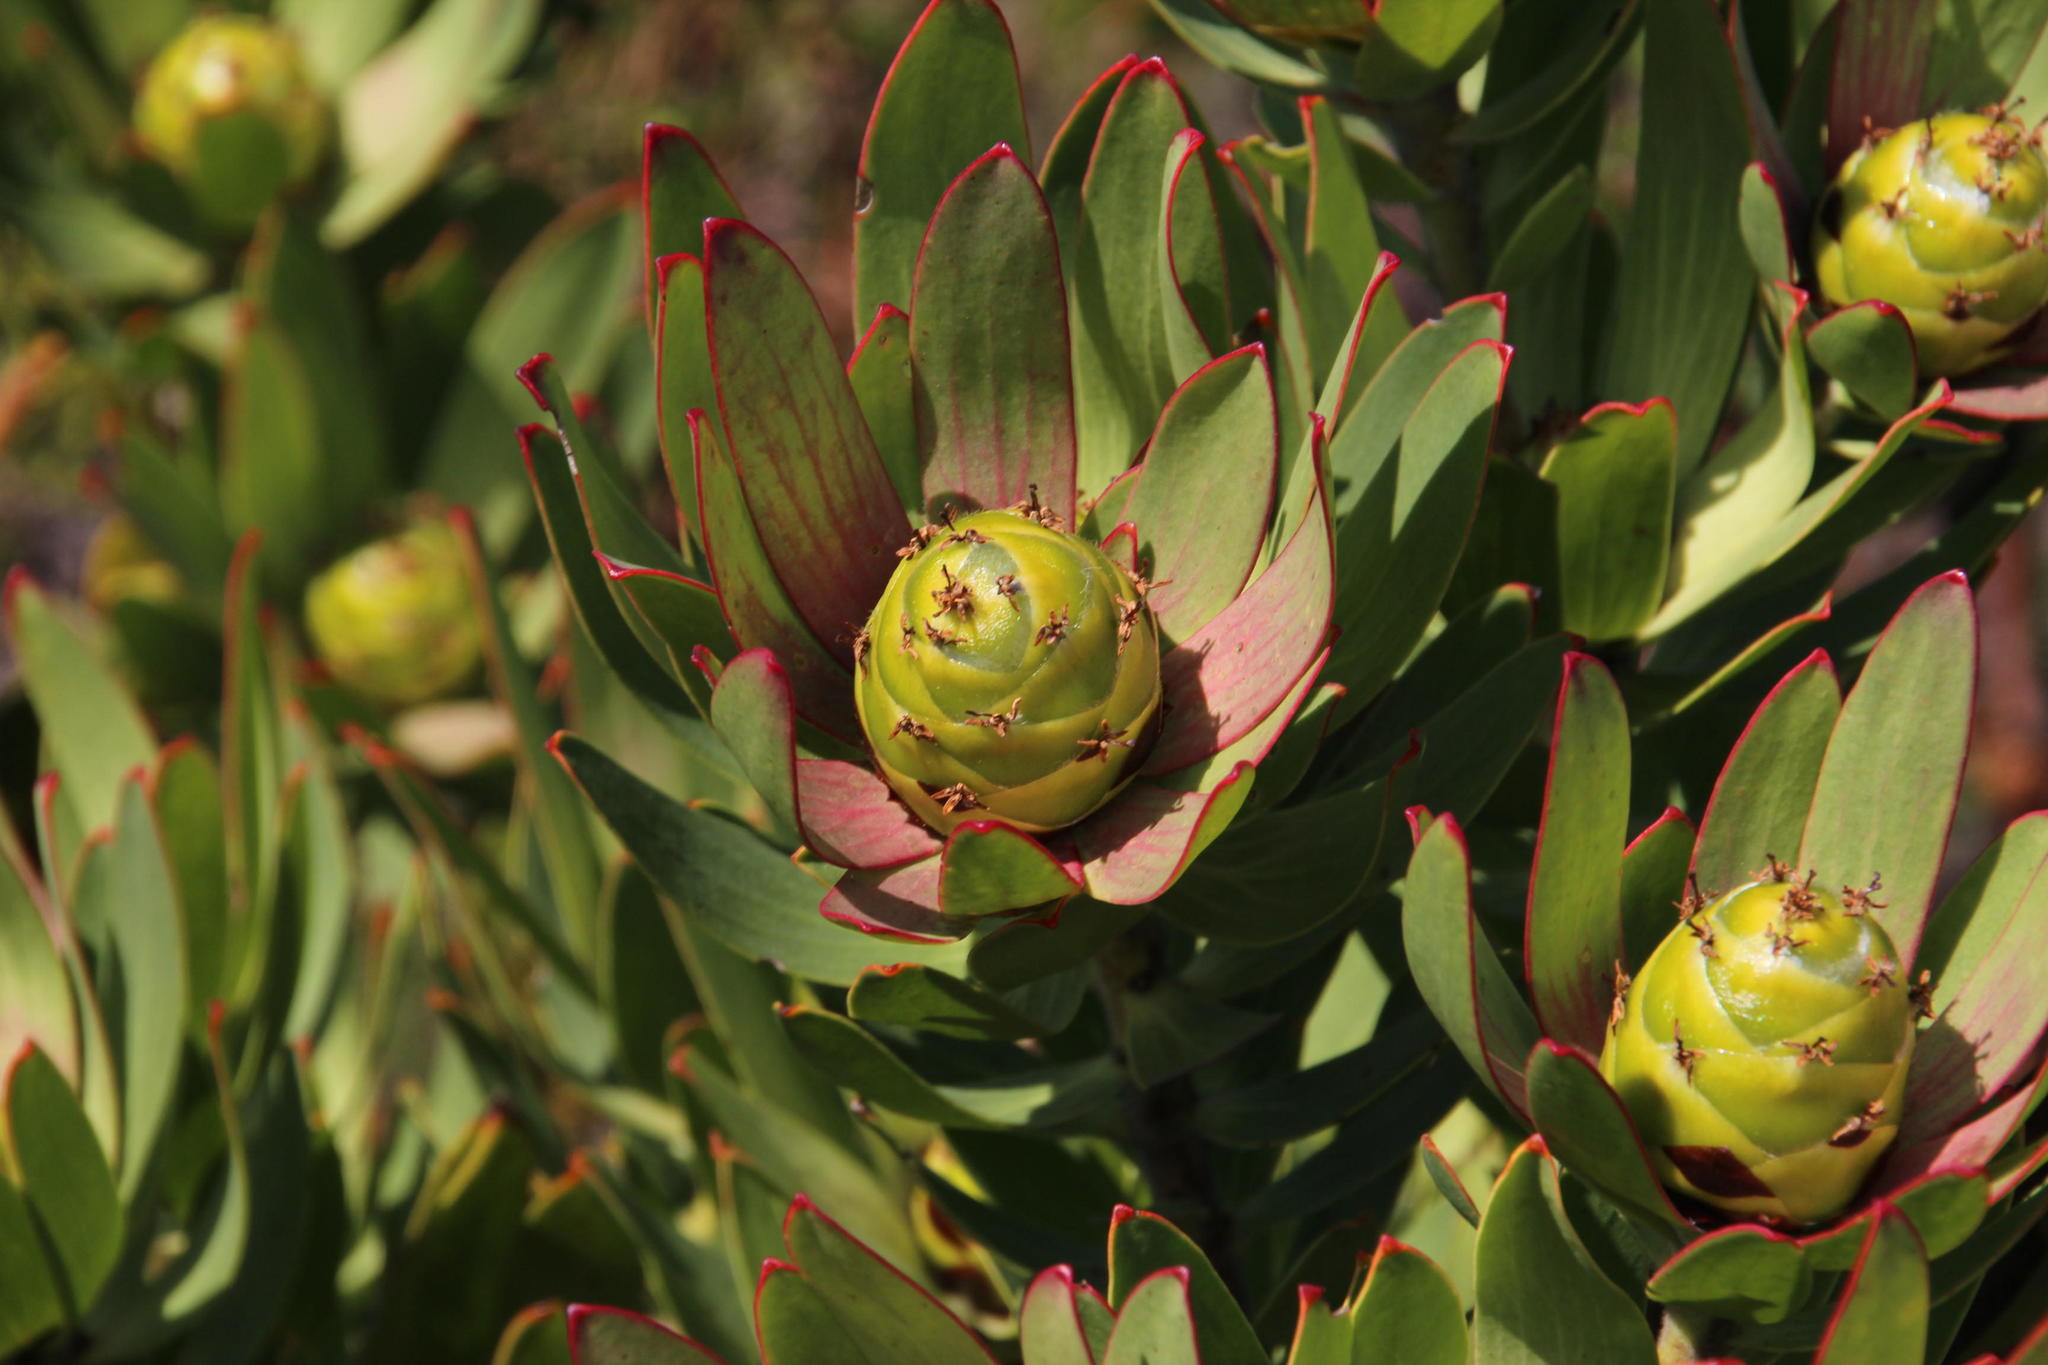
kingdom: Plantae
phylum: Tracheophyta
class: Magnoliopsida
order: Proteales
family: Proteaceae
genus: Leucadendron
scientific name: Leucadendron sessile
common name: Western sunbush
